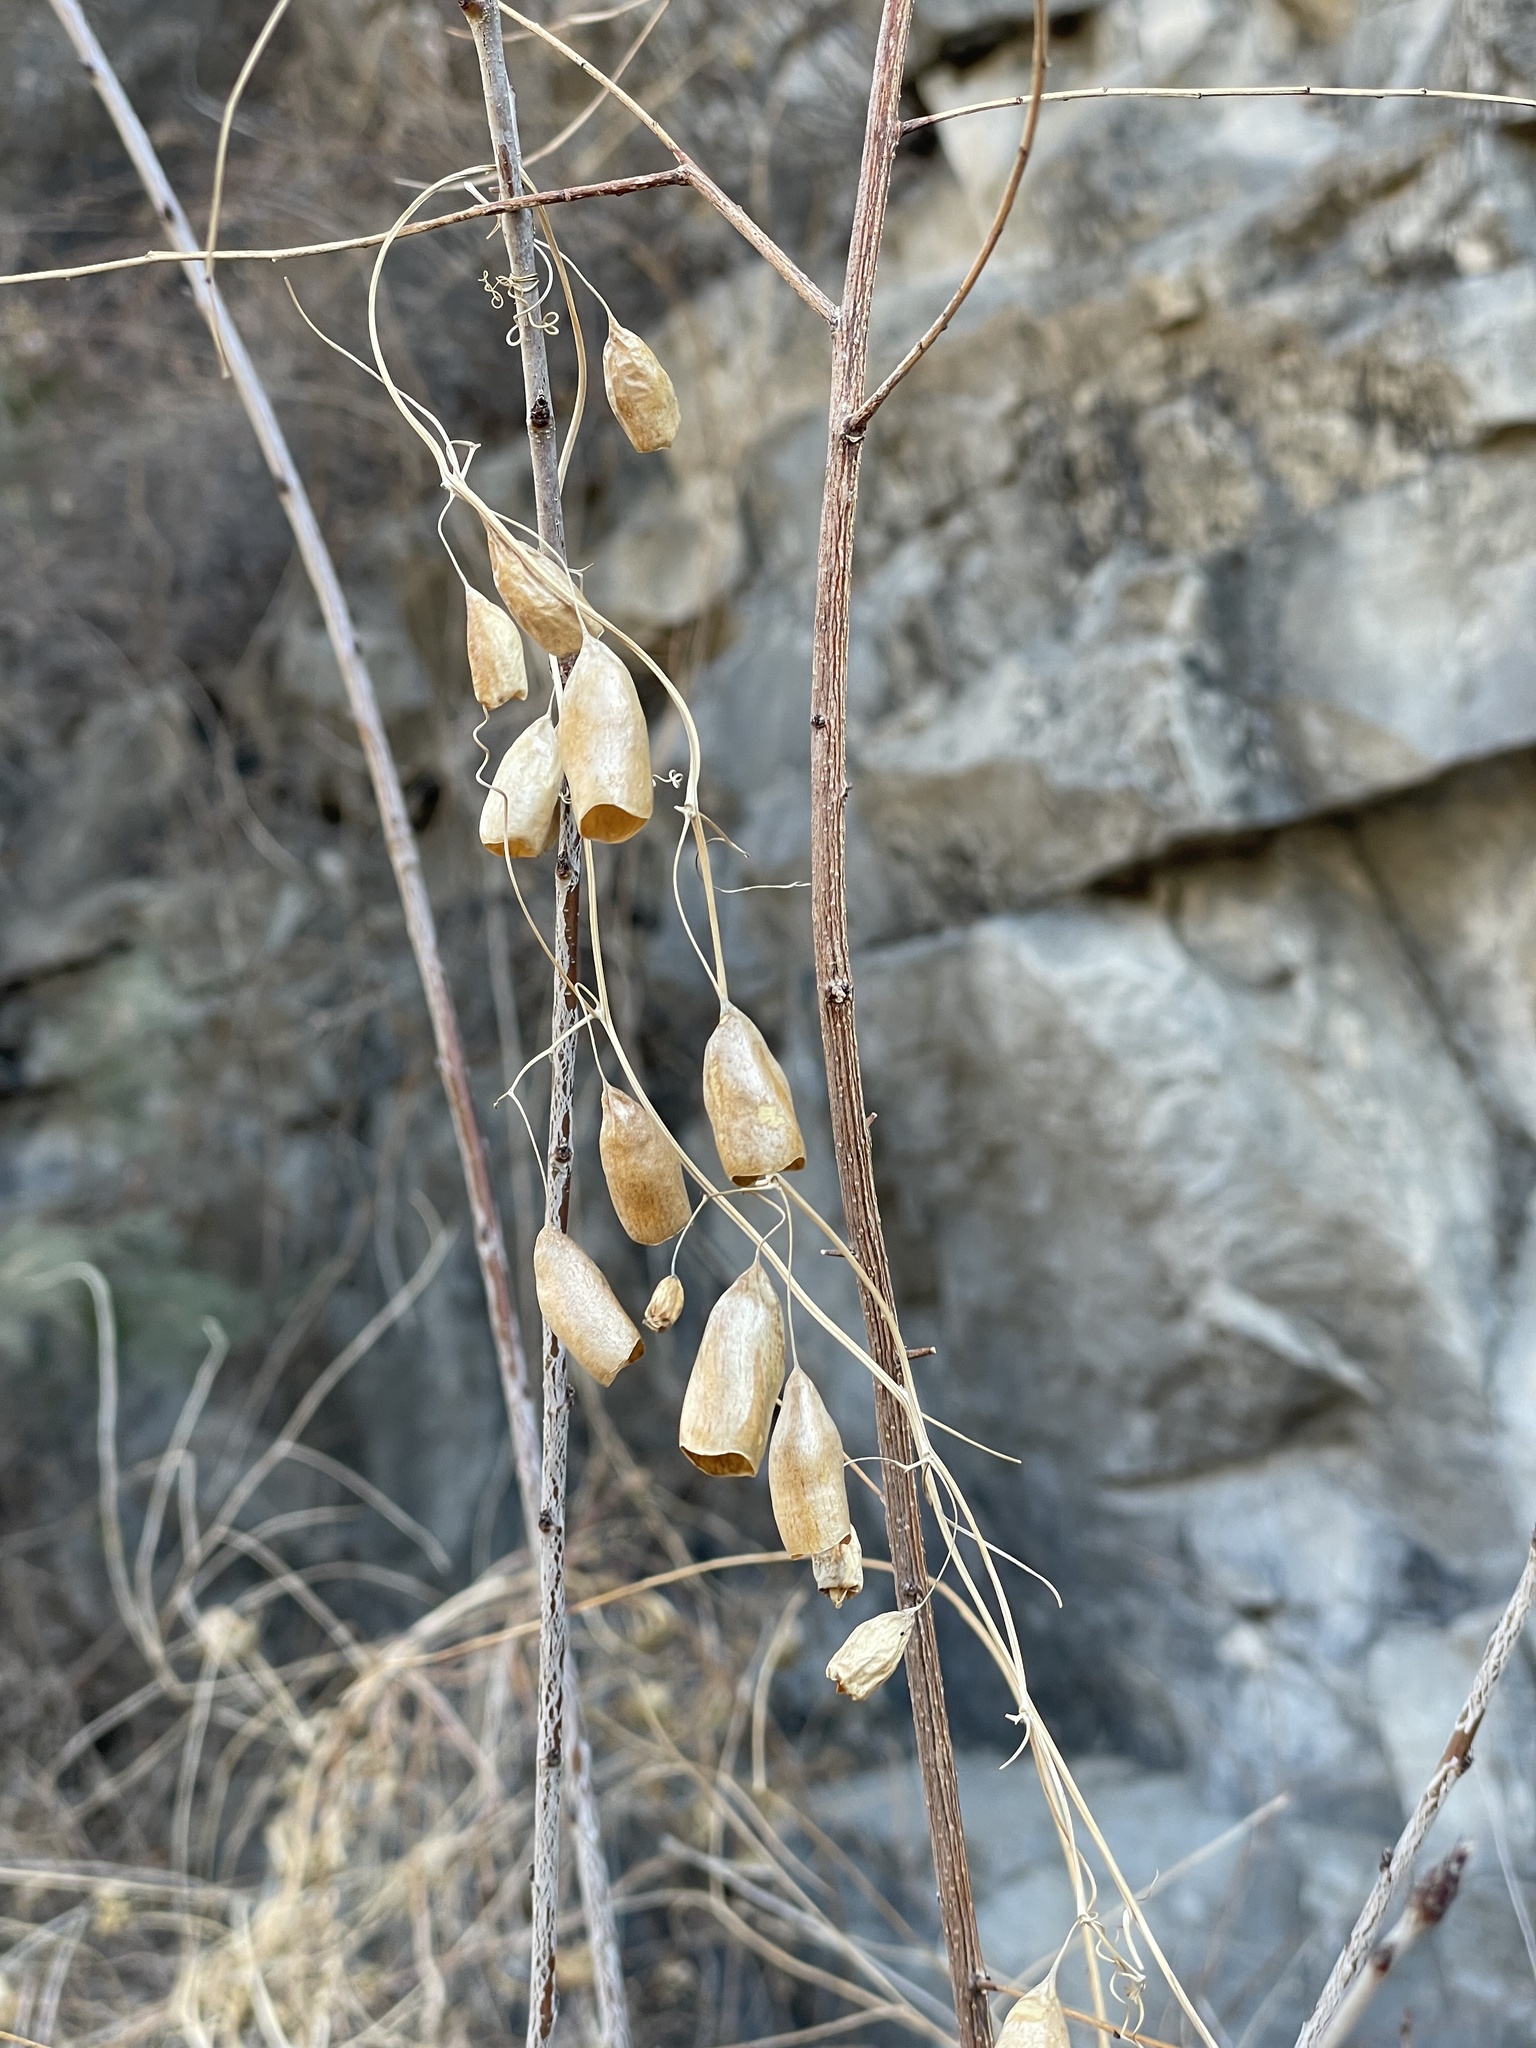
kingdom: Plantae
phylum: Tracheophyta
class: Magnoliopsida
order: Cucurbitales
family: Cucurbitaceae
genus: Actinostemma
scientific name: Actinostemma paniculatum
